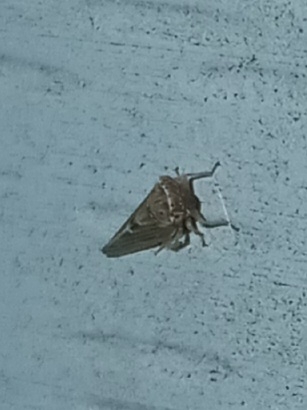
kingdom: Animalia
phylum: Arthropoda
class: Insecta
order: Hemiptera
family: Cicadellidae
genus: Agalliopsis
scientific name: Agalliopsis ancistra
